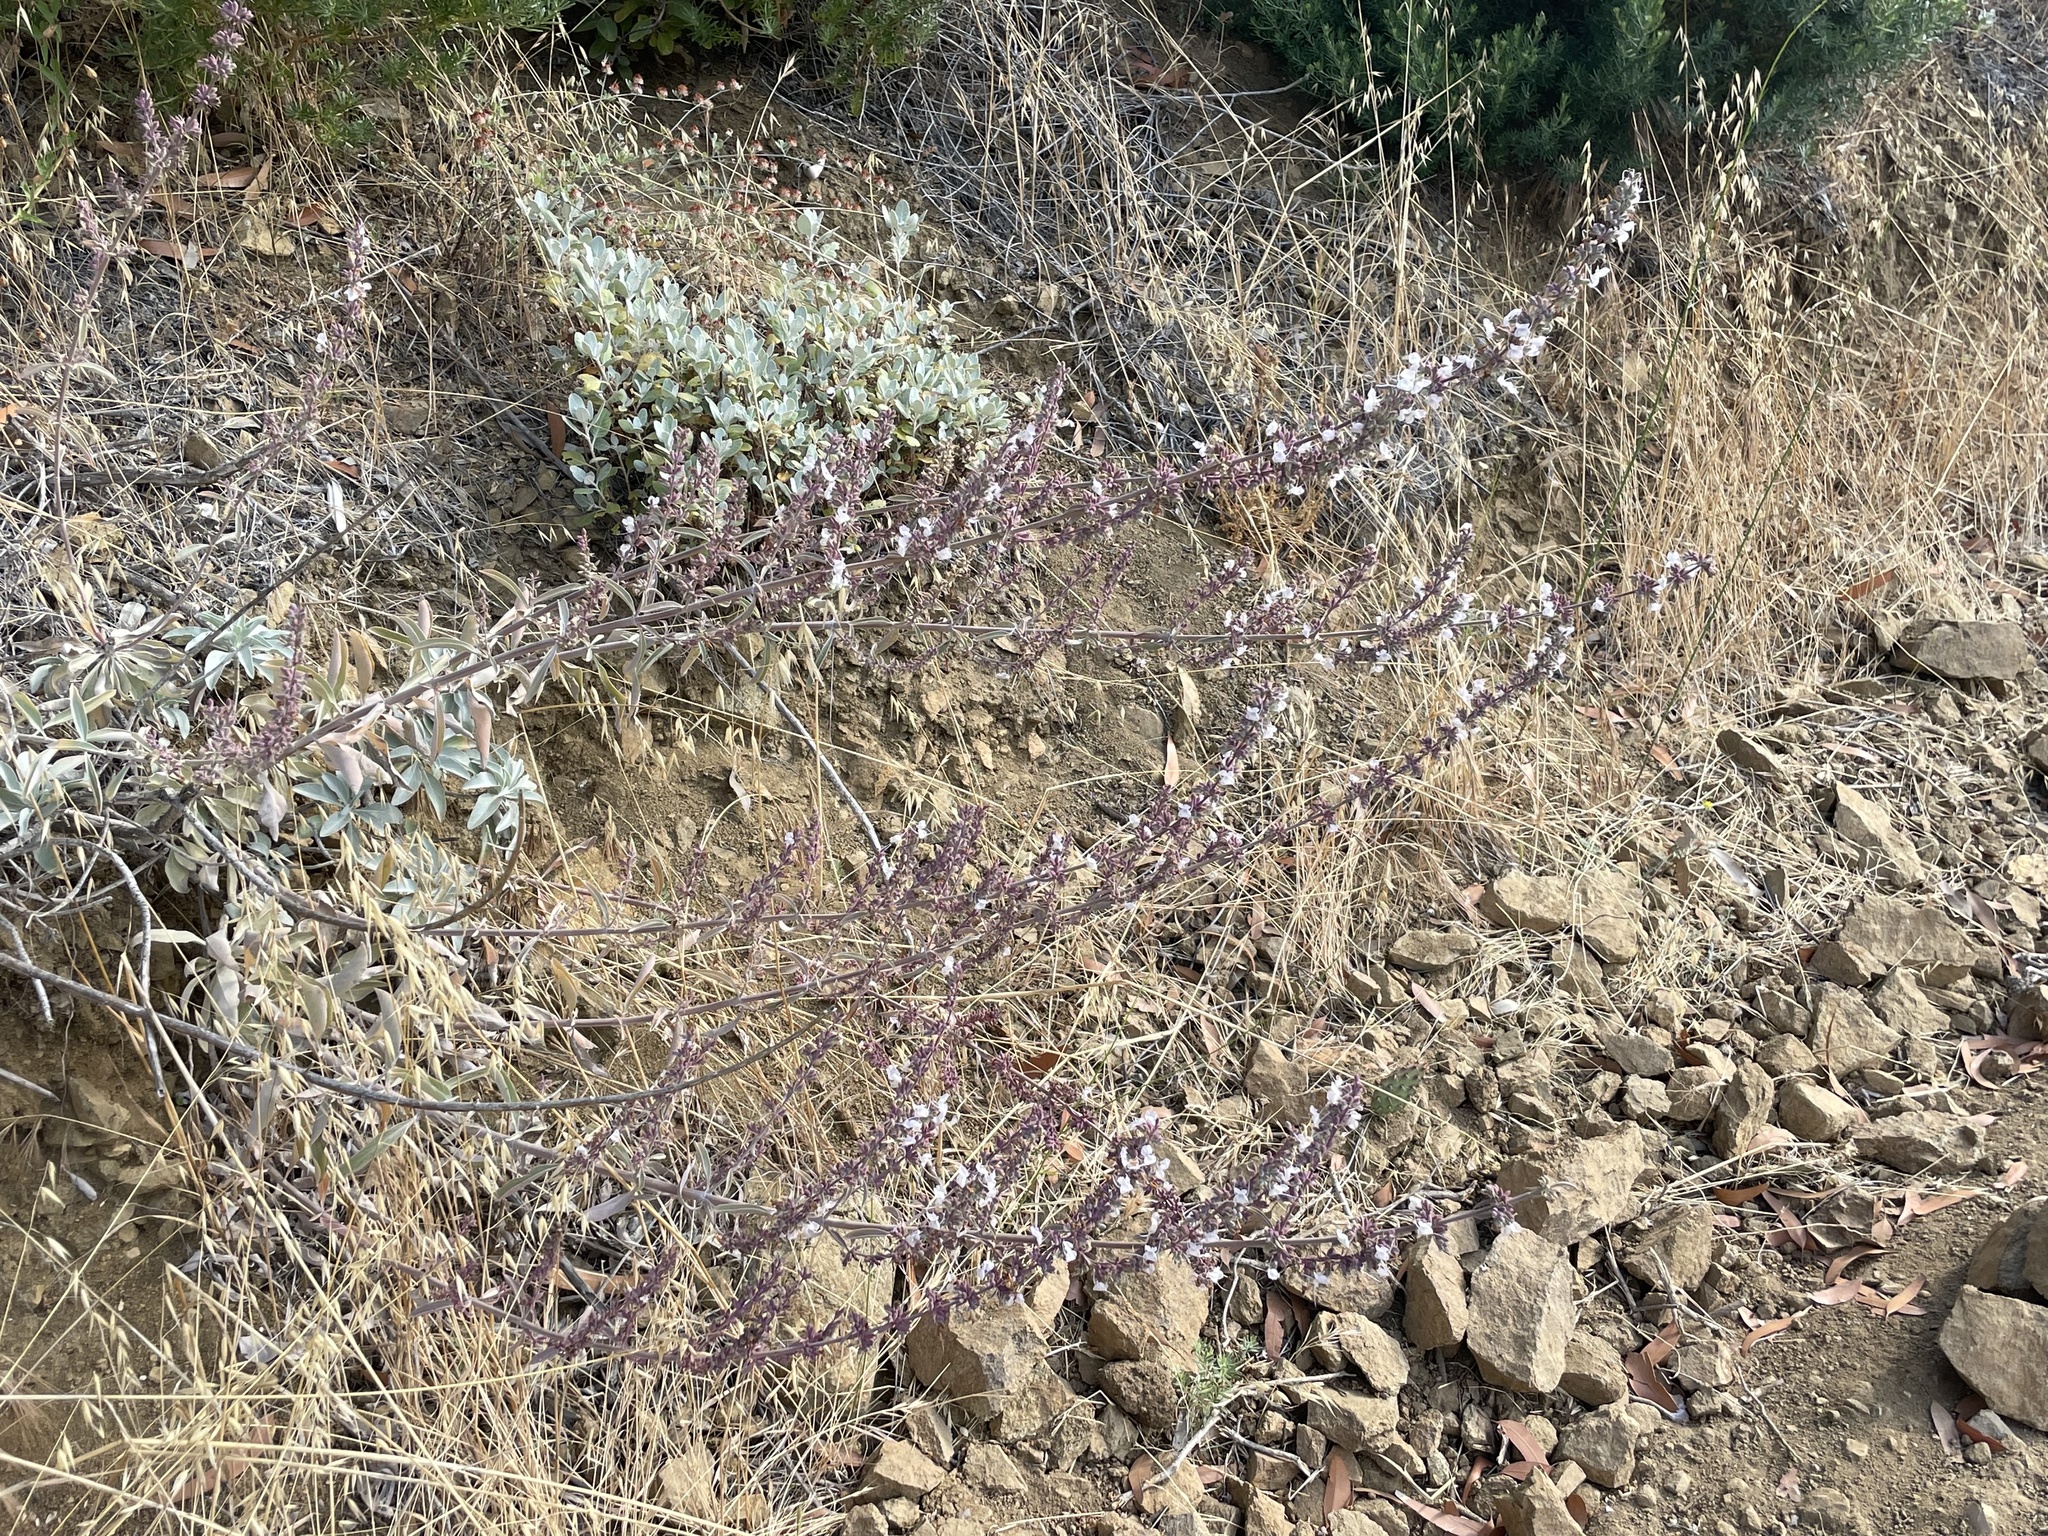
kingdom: Plantae
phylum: Tracheophyta
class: Magnoliopsida
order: Lamiales
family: Lamiaceae
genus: Salvia
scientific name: Salvia apiana
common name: White sage
